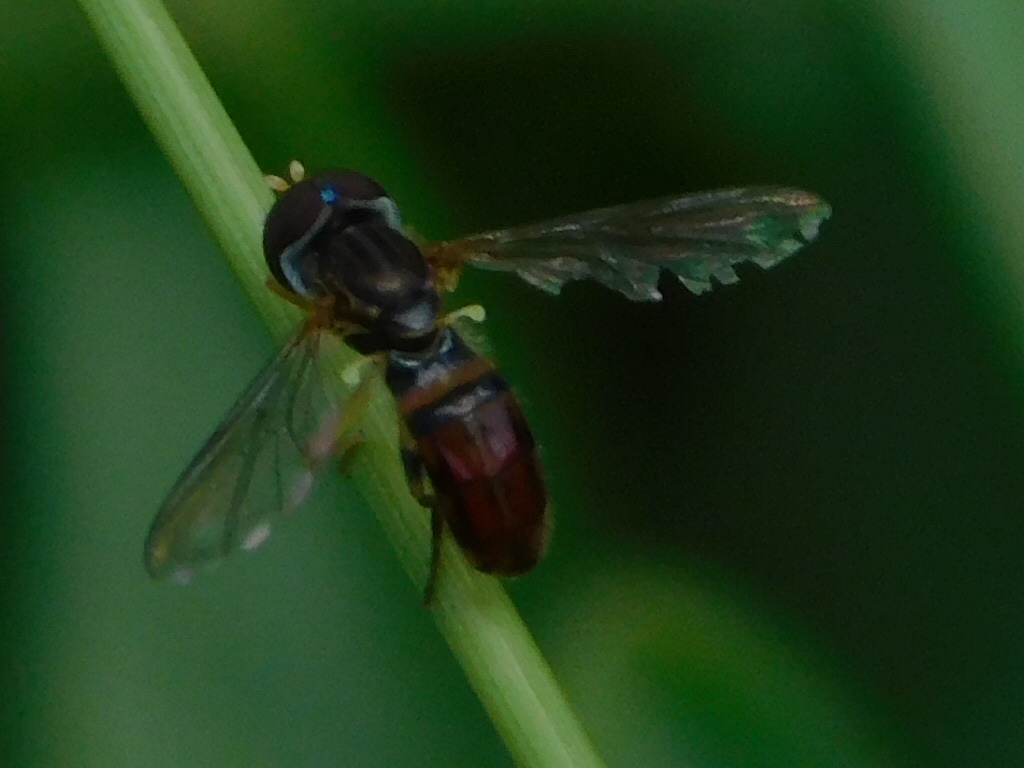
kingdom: Animalia
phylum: Arthropoda
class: Insecta
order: Diptera
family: Syrphidae
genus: Toxomerus
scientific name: Toxomerus boscii
